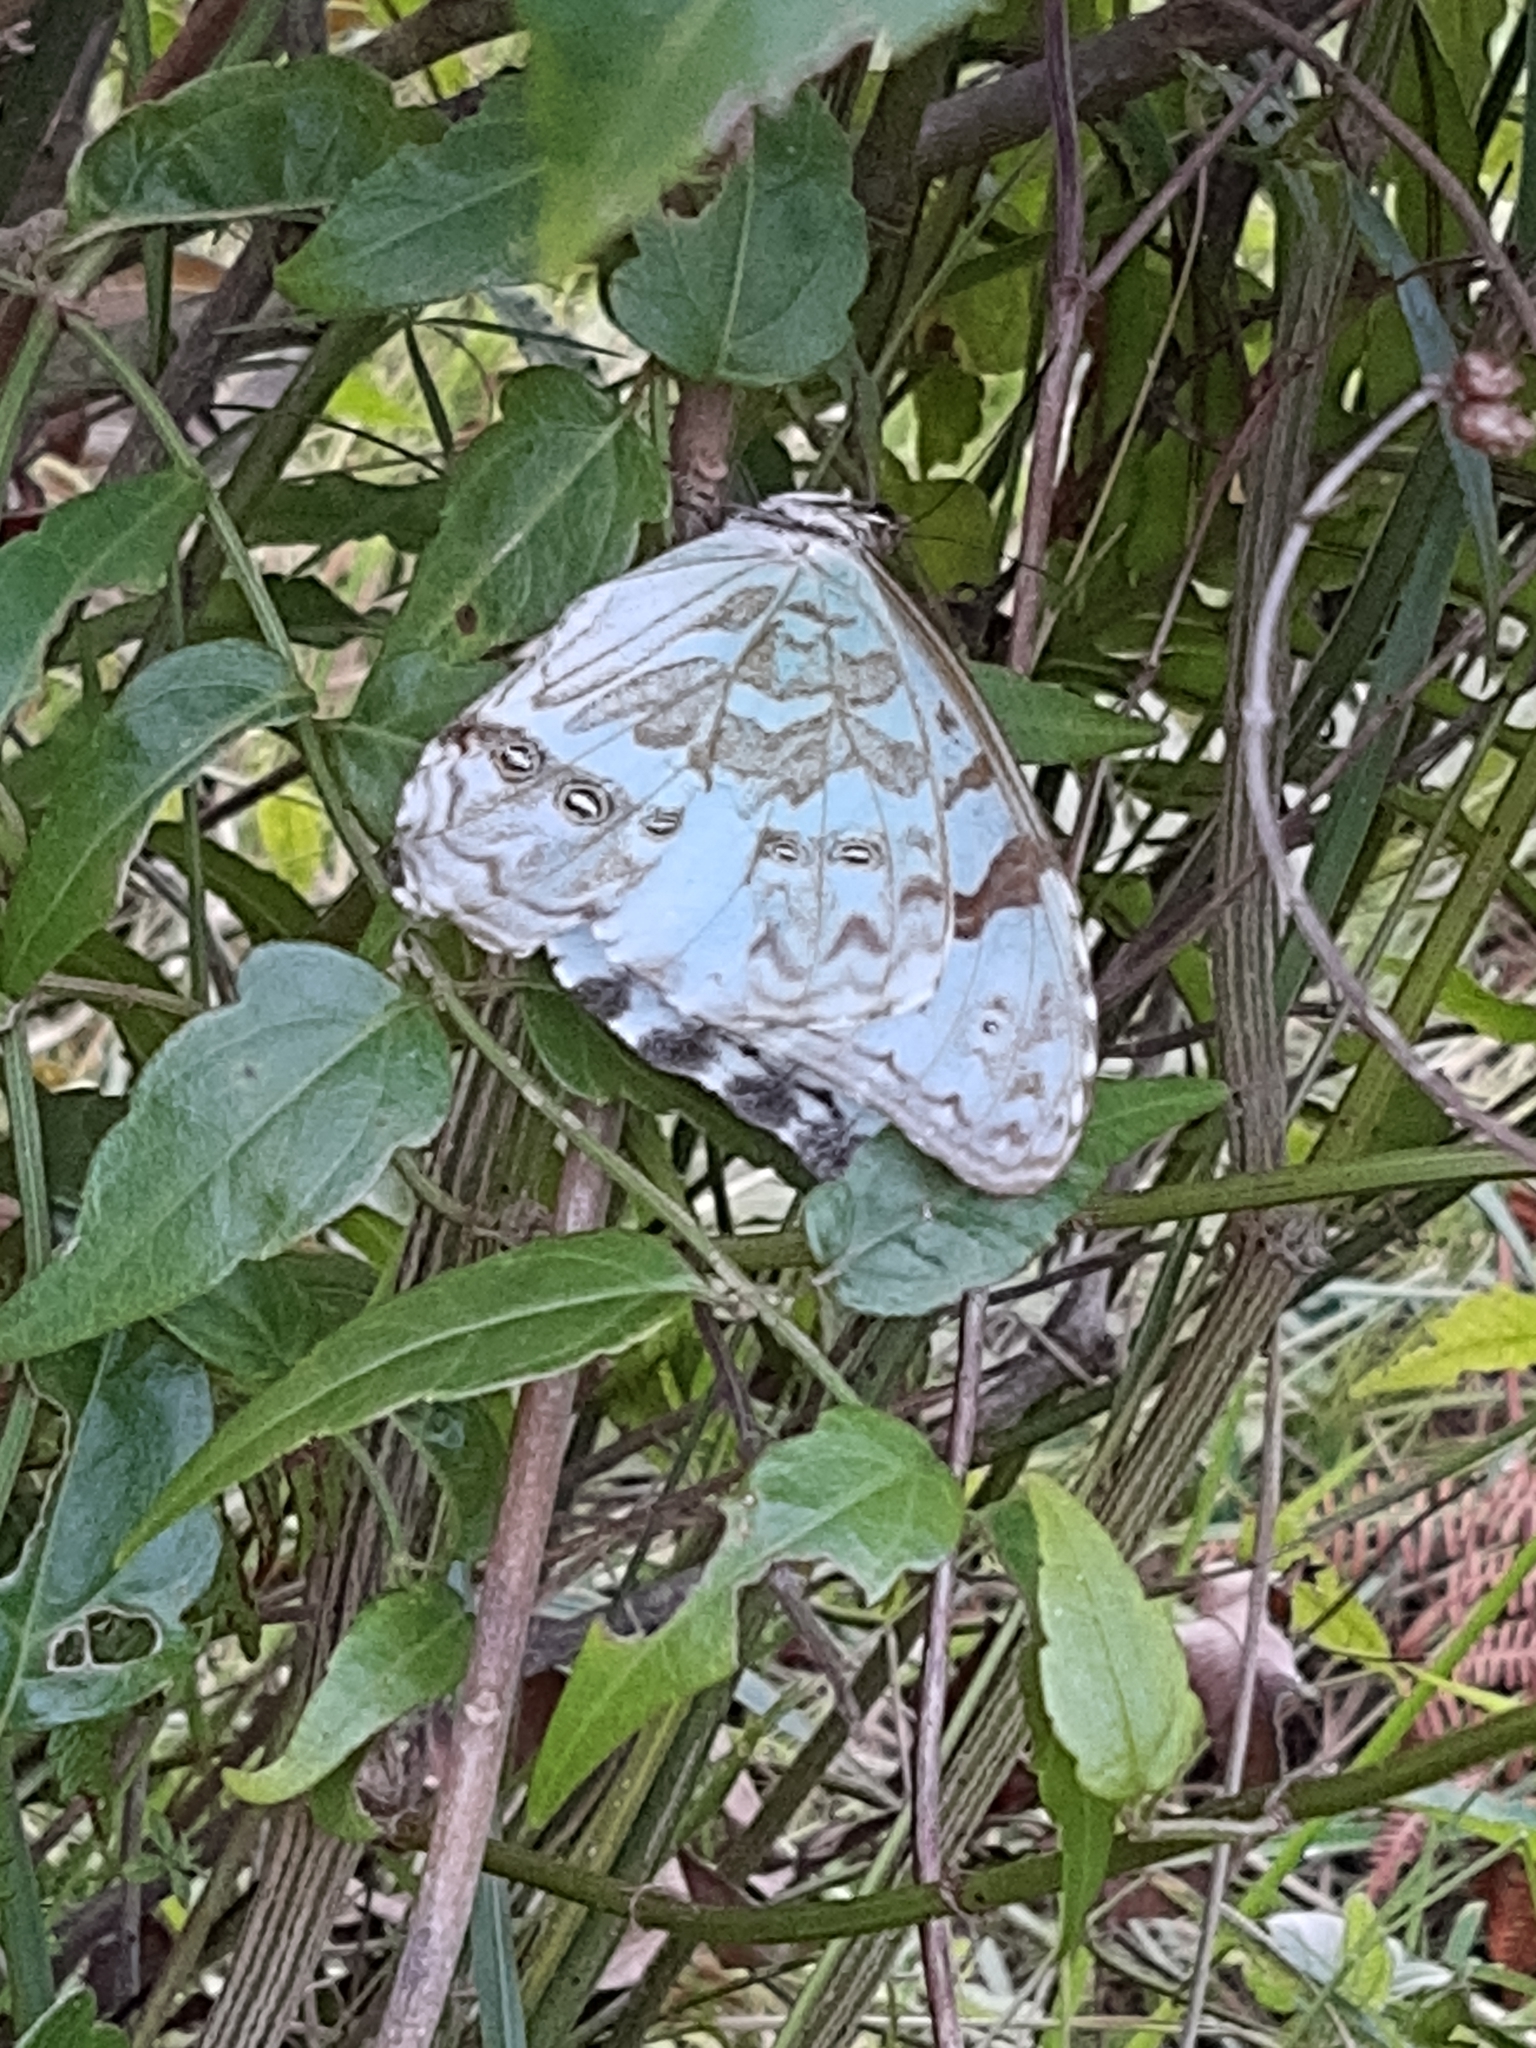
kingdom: Animalia
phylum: Arthropoda
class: Insecta
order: Lepidoptera
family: Nymphalidae
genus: Morpho
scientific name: Morpho epistrophus
